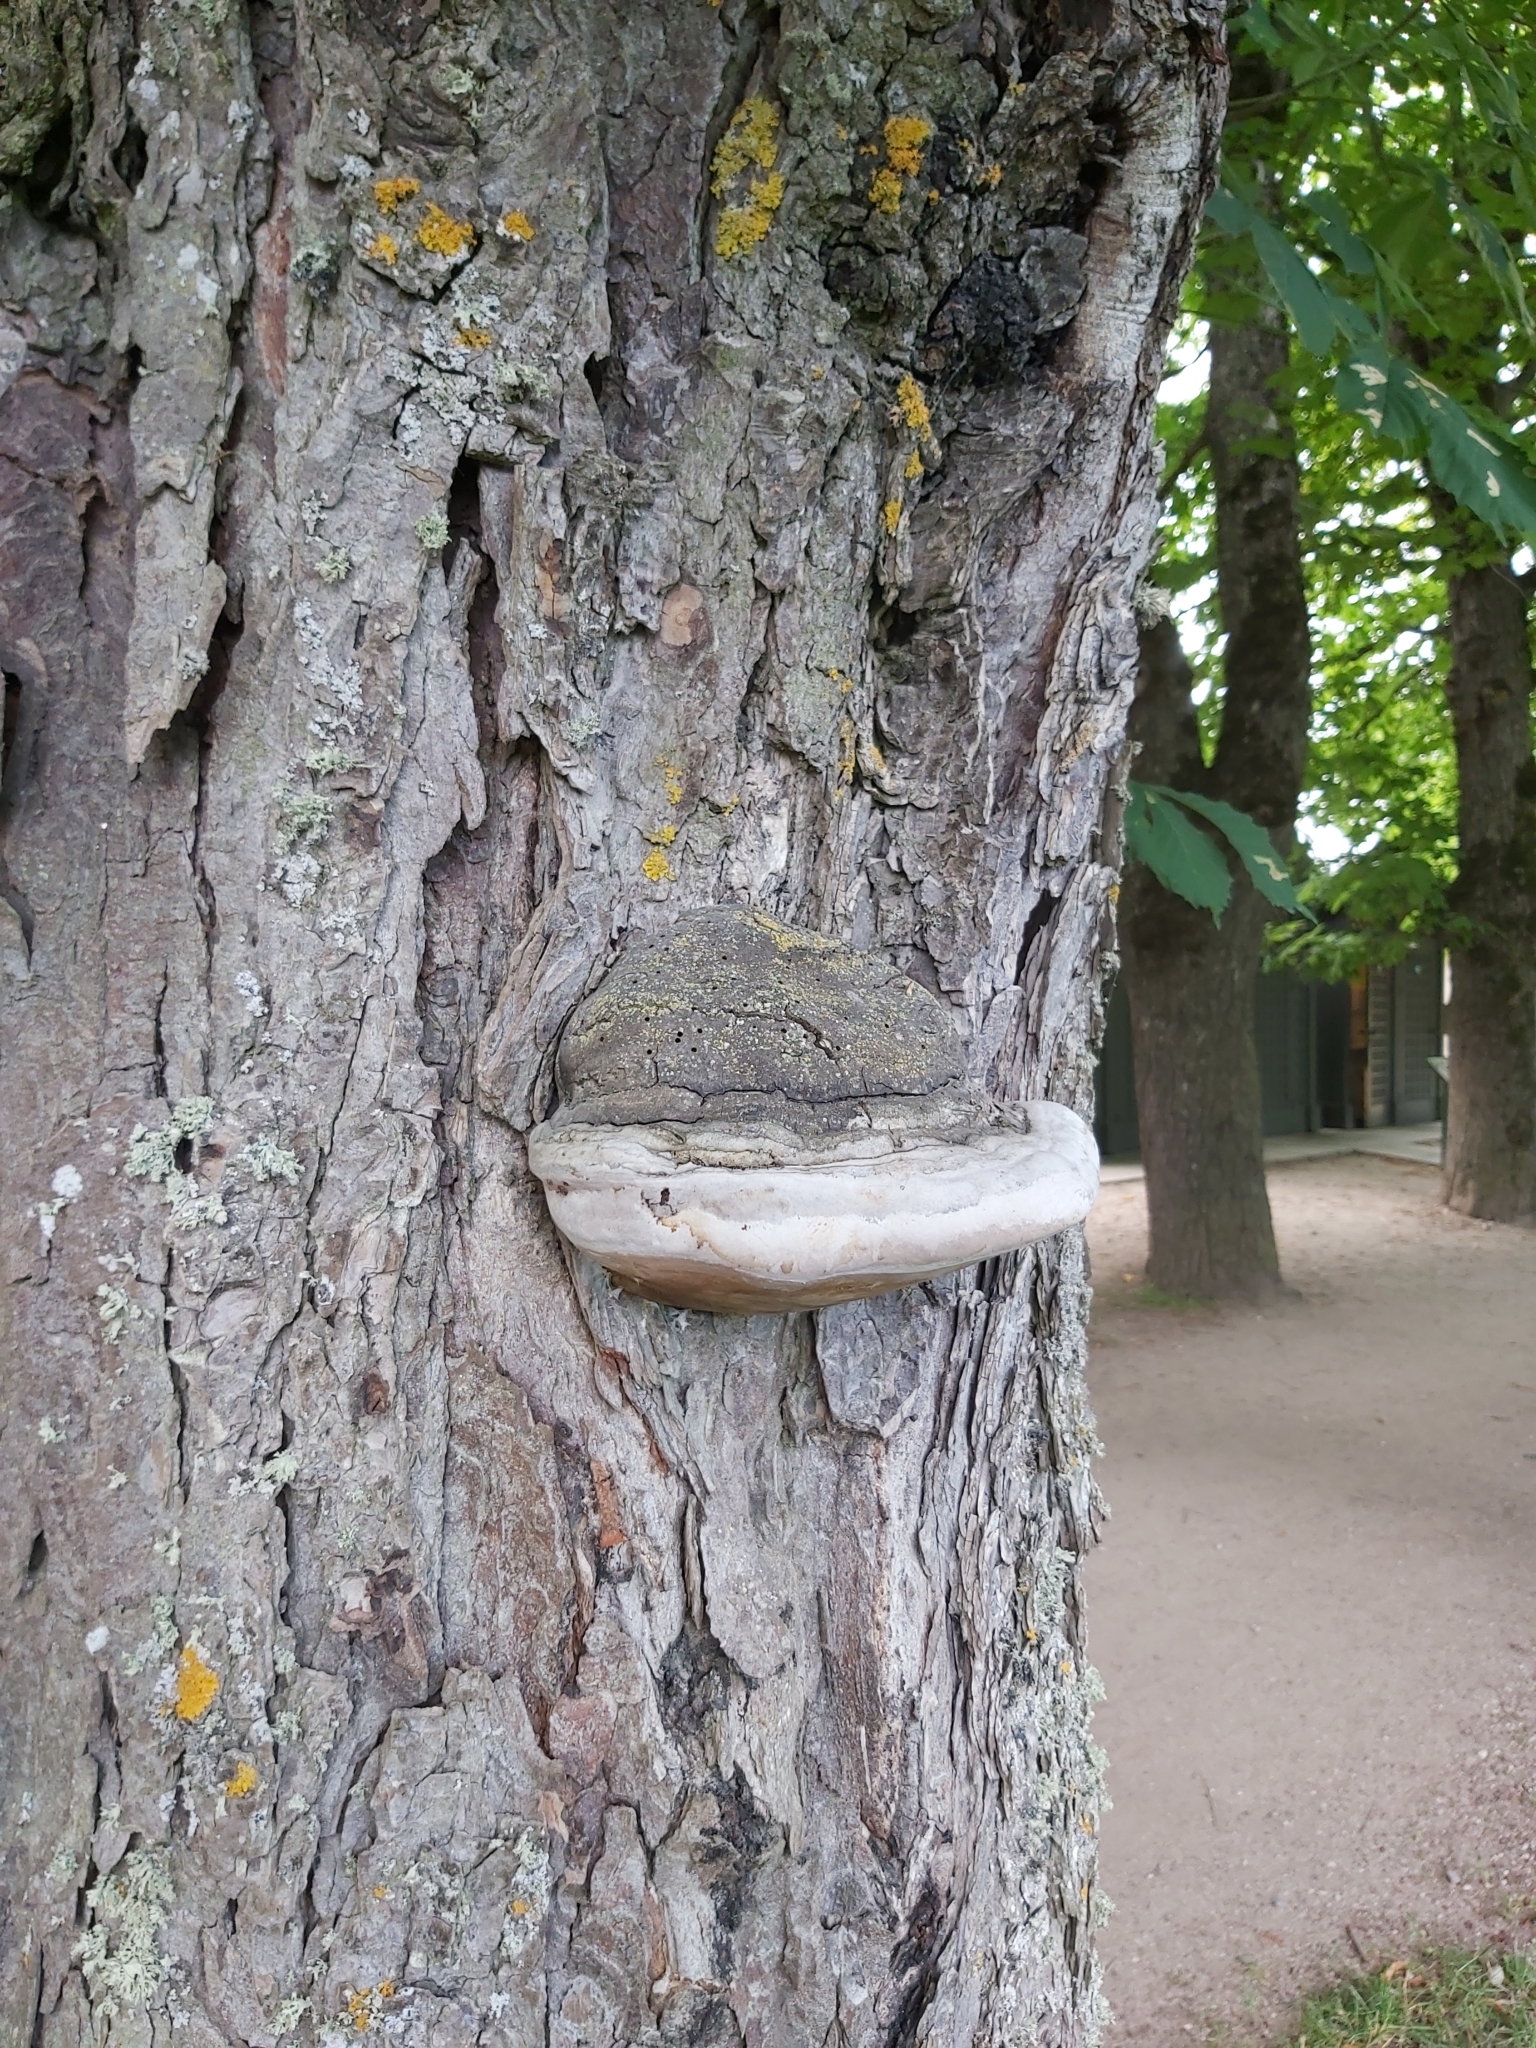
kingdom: Fungi
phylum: Basidiomycota
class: Agaricomycetes
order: Polyporales
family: Polyporaceae
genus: Fomes
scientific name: Fomes fomentarius
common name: Hoof fungus
